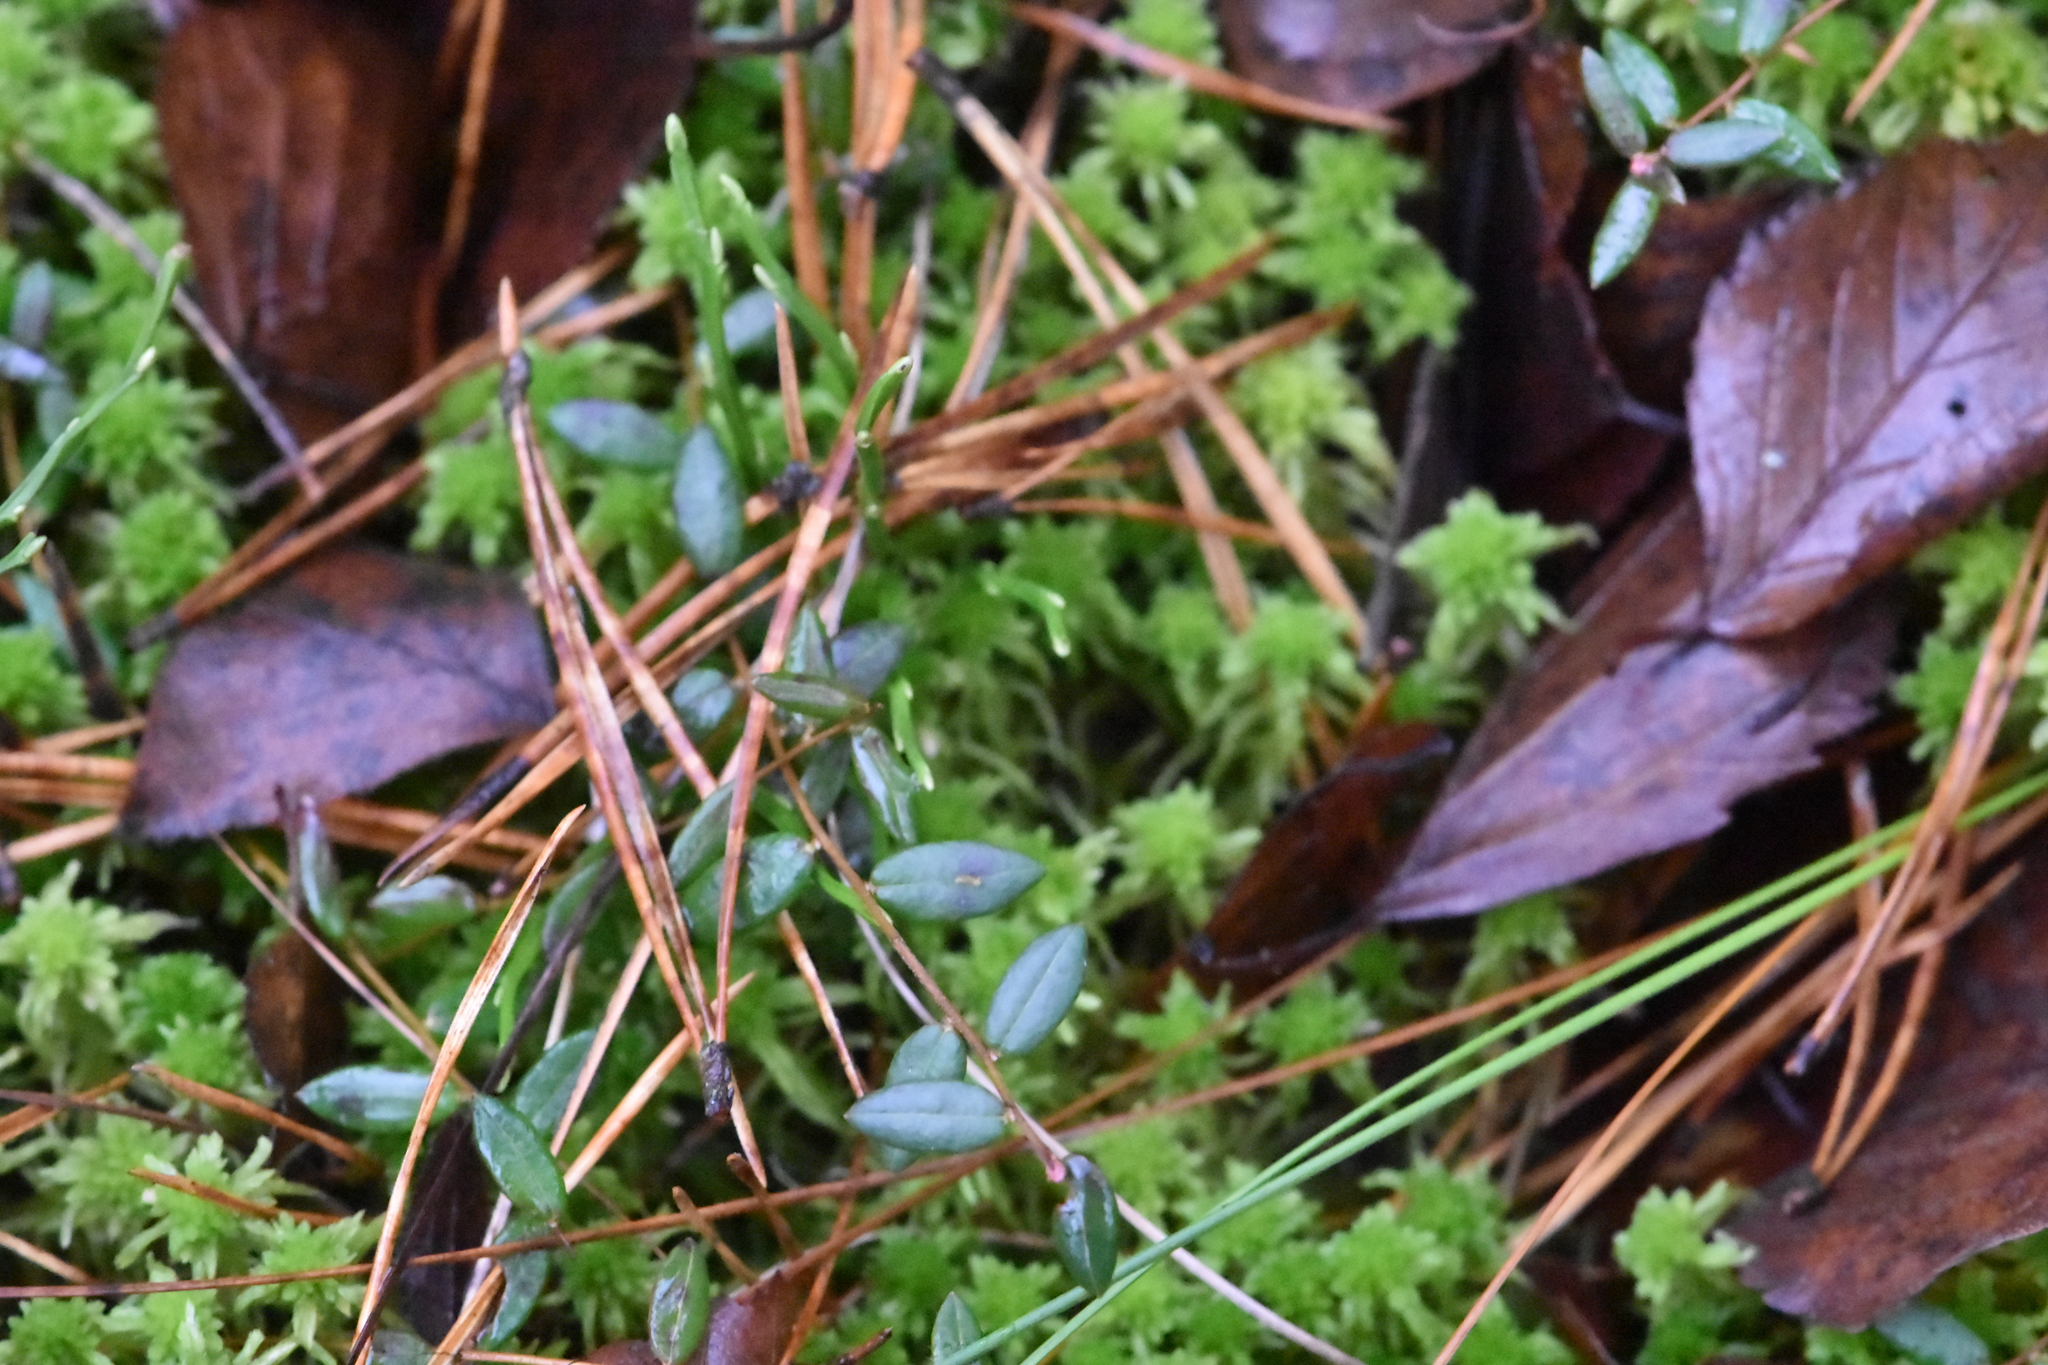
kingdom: Plantae
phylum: Tracheophyta
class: Magnoliopsida
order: Ericales
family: Ericaceae
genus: Vaccinium
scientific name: Vaccinium oxycoccos
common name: Cranberry
